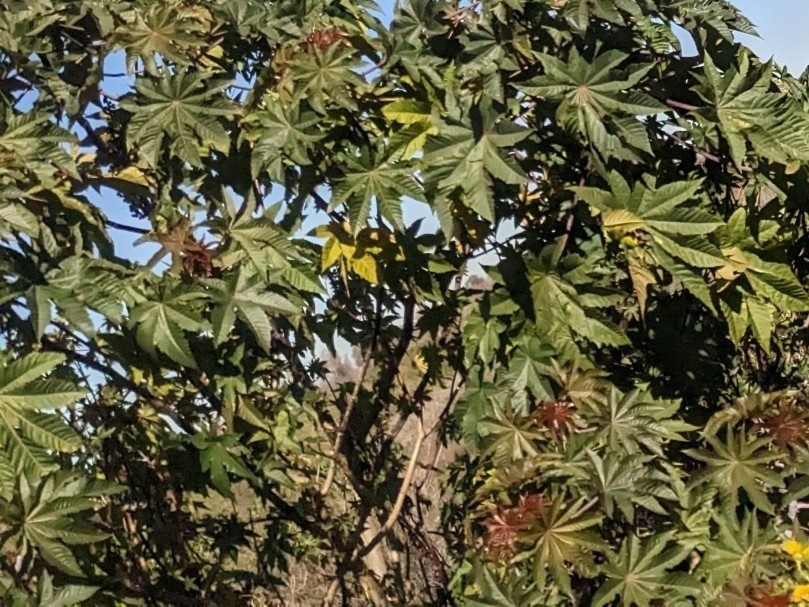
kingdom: Plantae
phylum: Tracheophyta
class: Magnoliopsida
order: Malpighiales
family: Euphorbiaceae
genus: Ricinus
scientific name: Ricinus communis
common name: Castor-oil-plant
